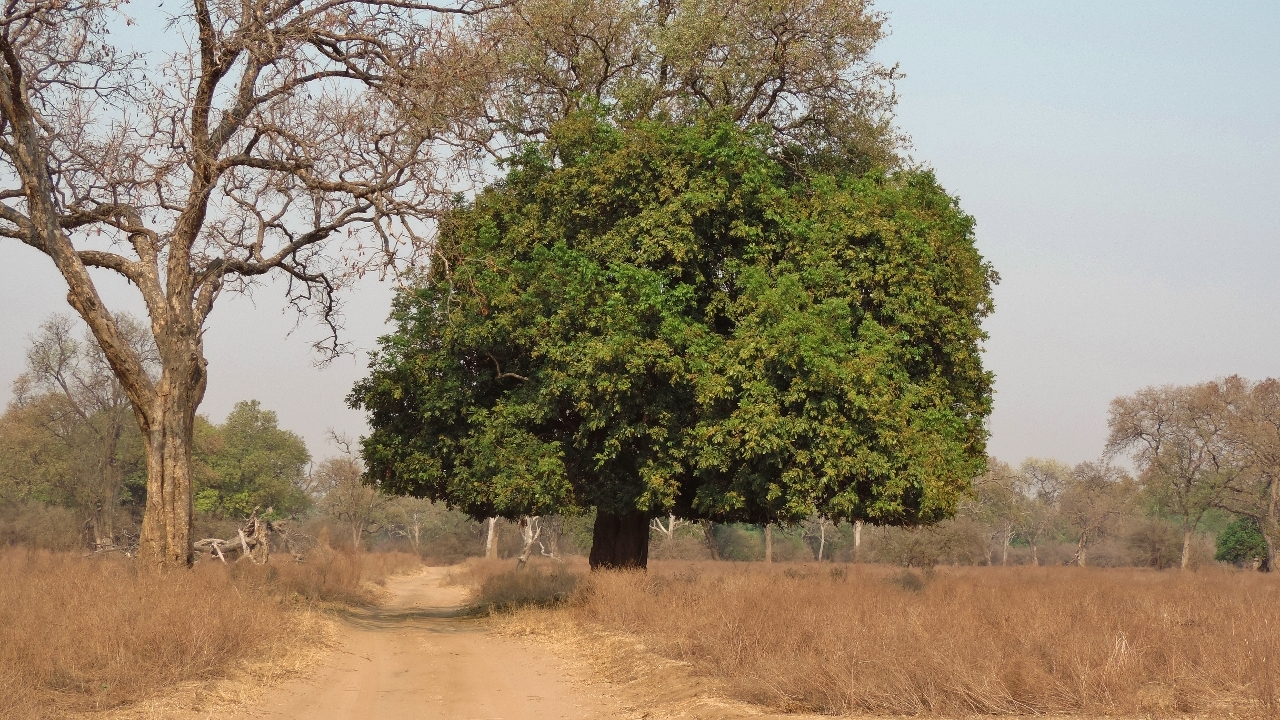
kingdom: Plantae
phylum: Tracheophyta
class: Magnoliopsida
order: Sapindales
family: Meliaceae
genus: Trichilia
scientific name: Trichilia emetica
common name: Christmas-bells
